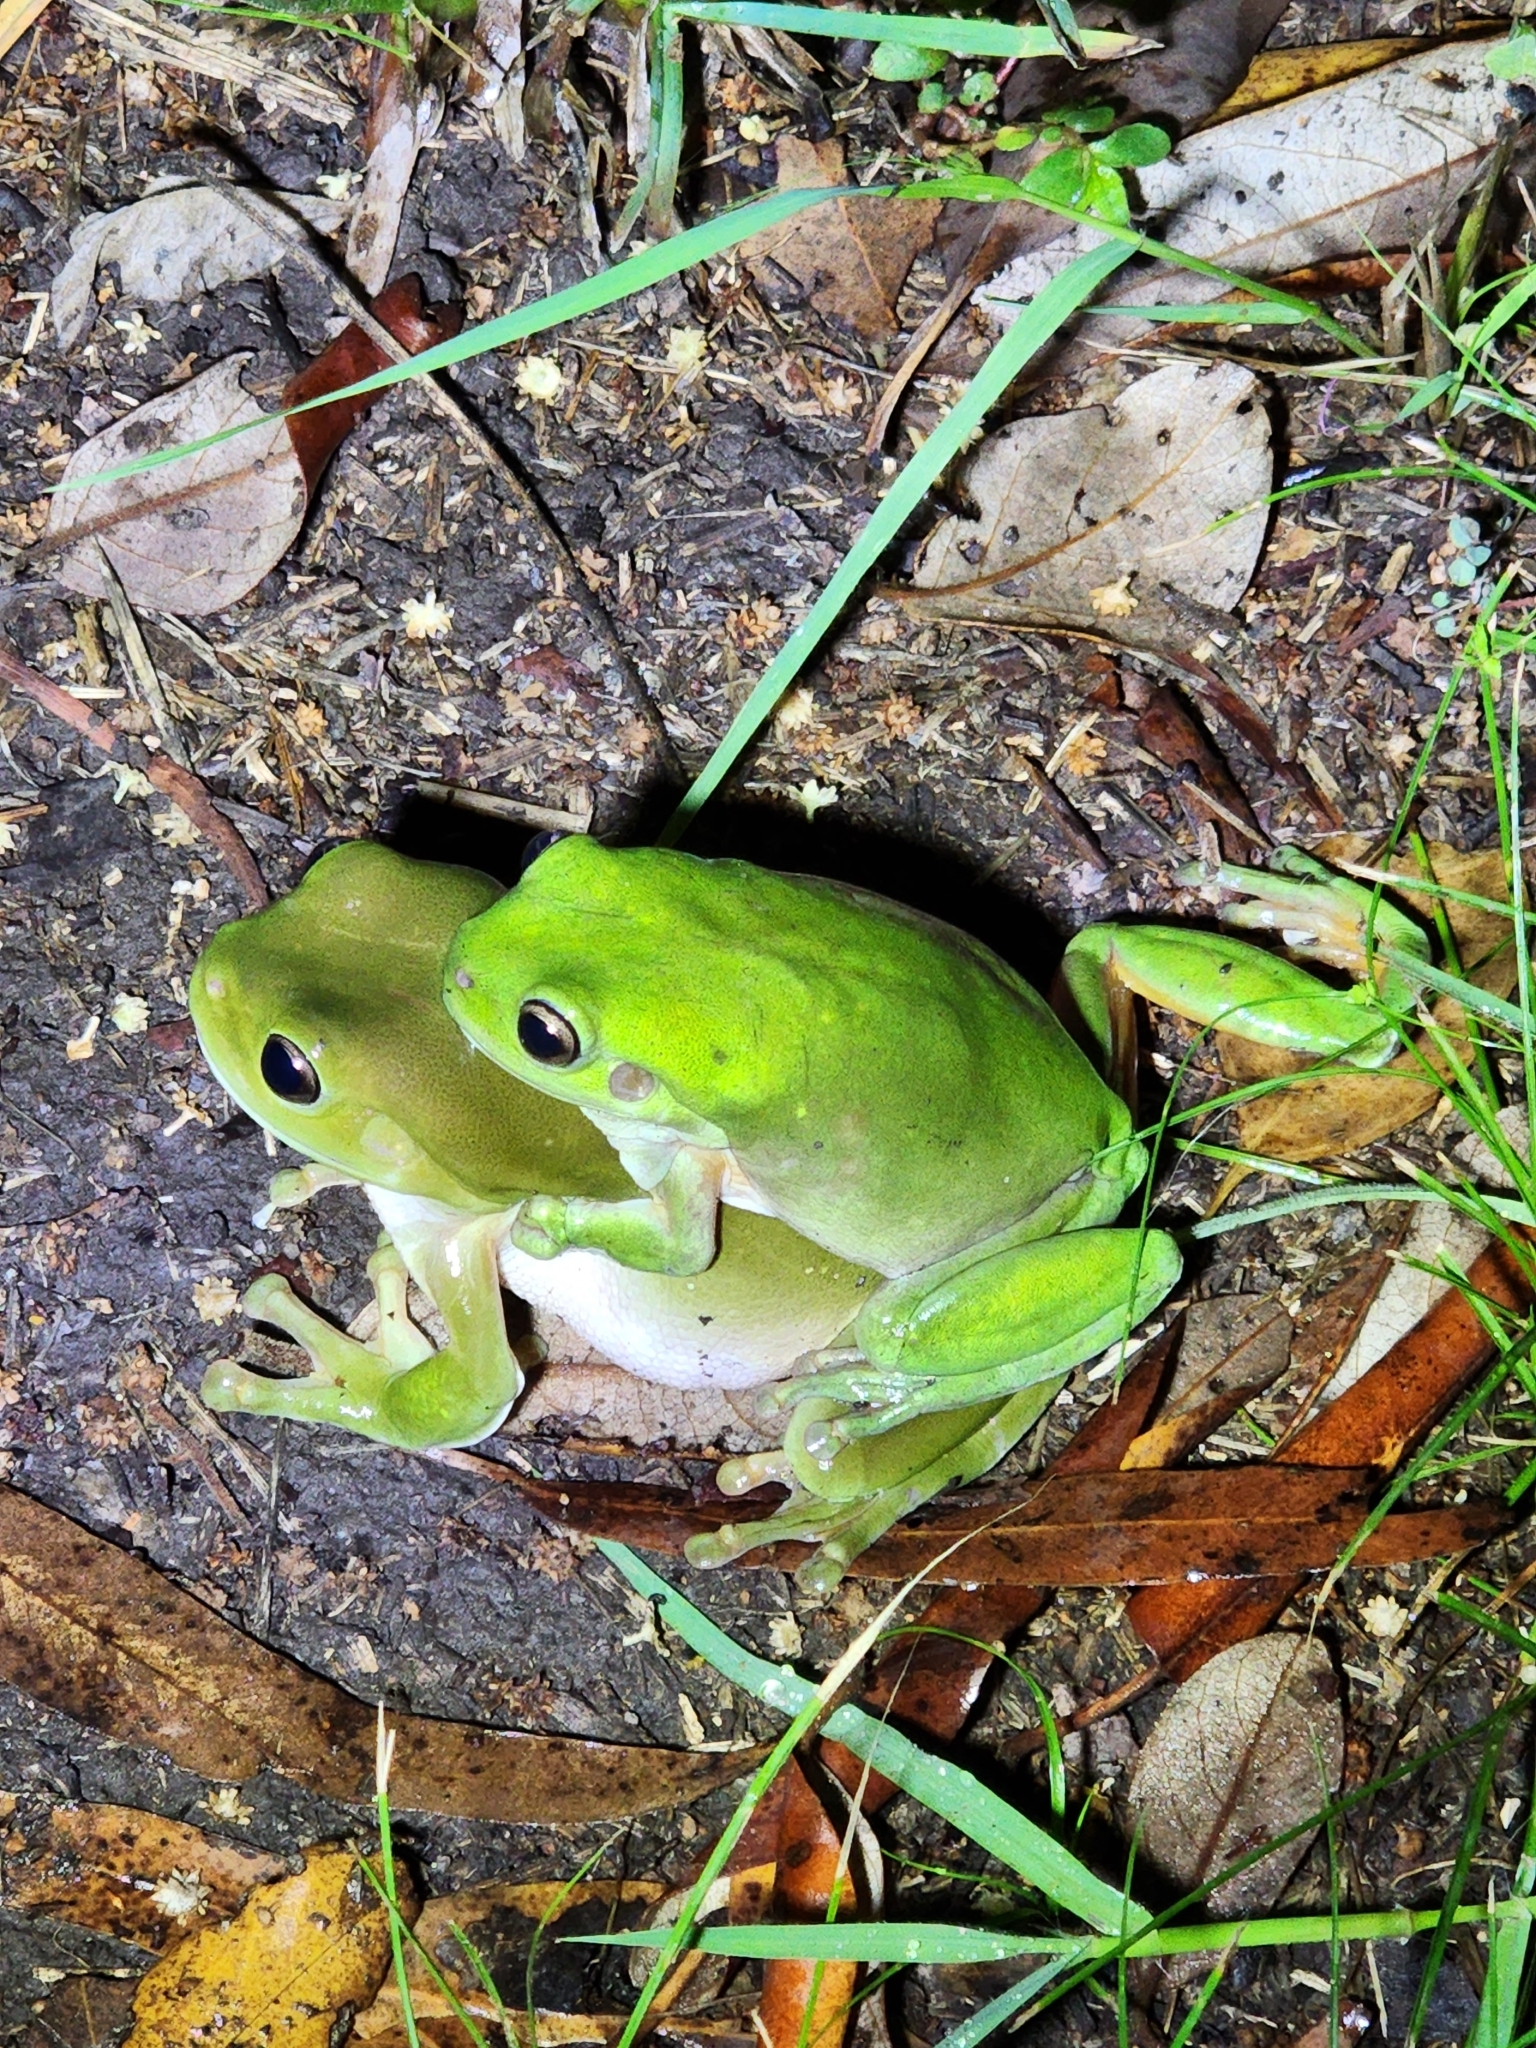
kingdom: Animalia
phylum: Chordata
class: Amphibia
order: Anura
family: Pelodryadidae
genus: Ranoidea
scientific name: Ranoidea caerulea
